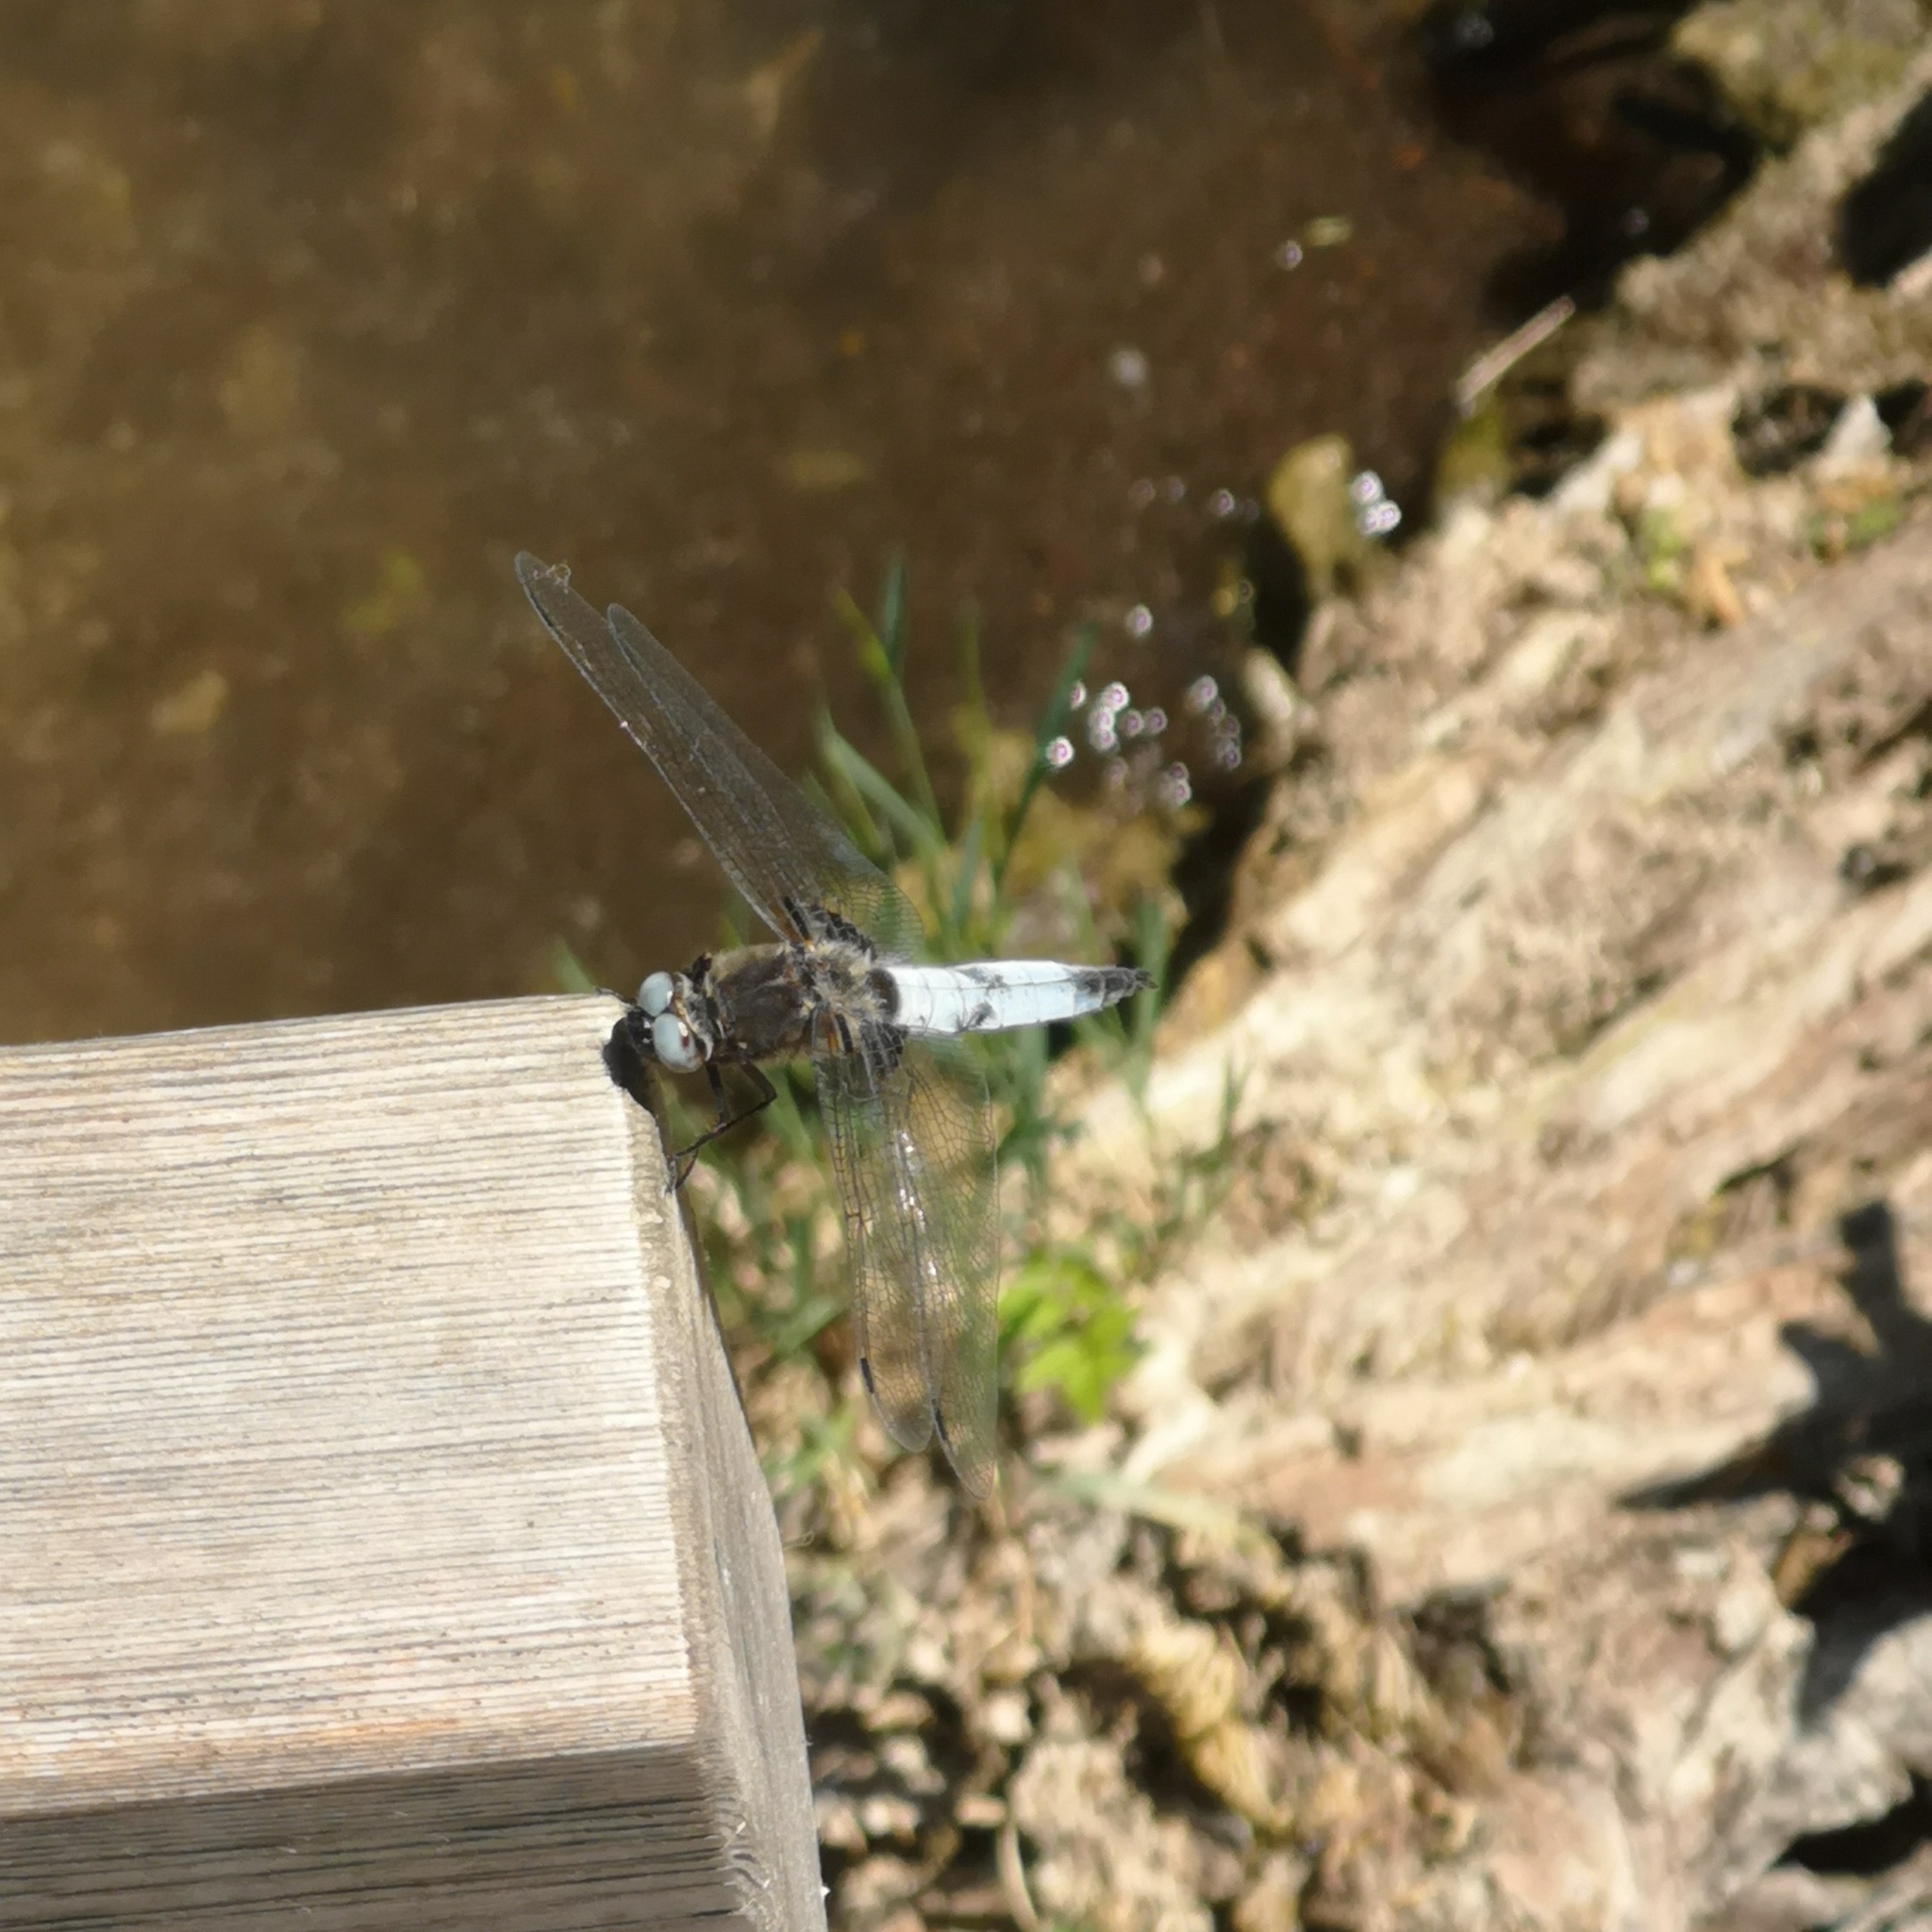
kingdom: Animalia
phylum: Arthropoda
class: Insecta
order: Odonata
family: Libellulidae
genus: Libellula
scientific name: Libellula fulva
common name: Blue chaser
